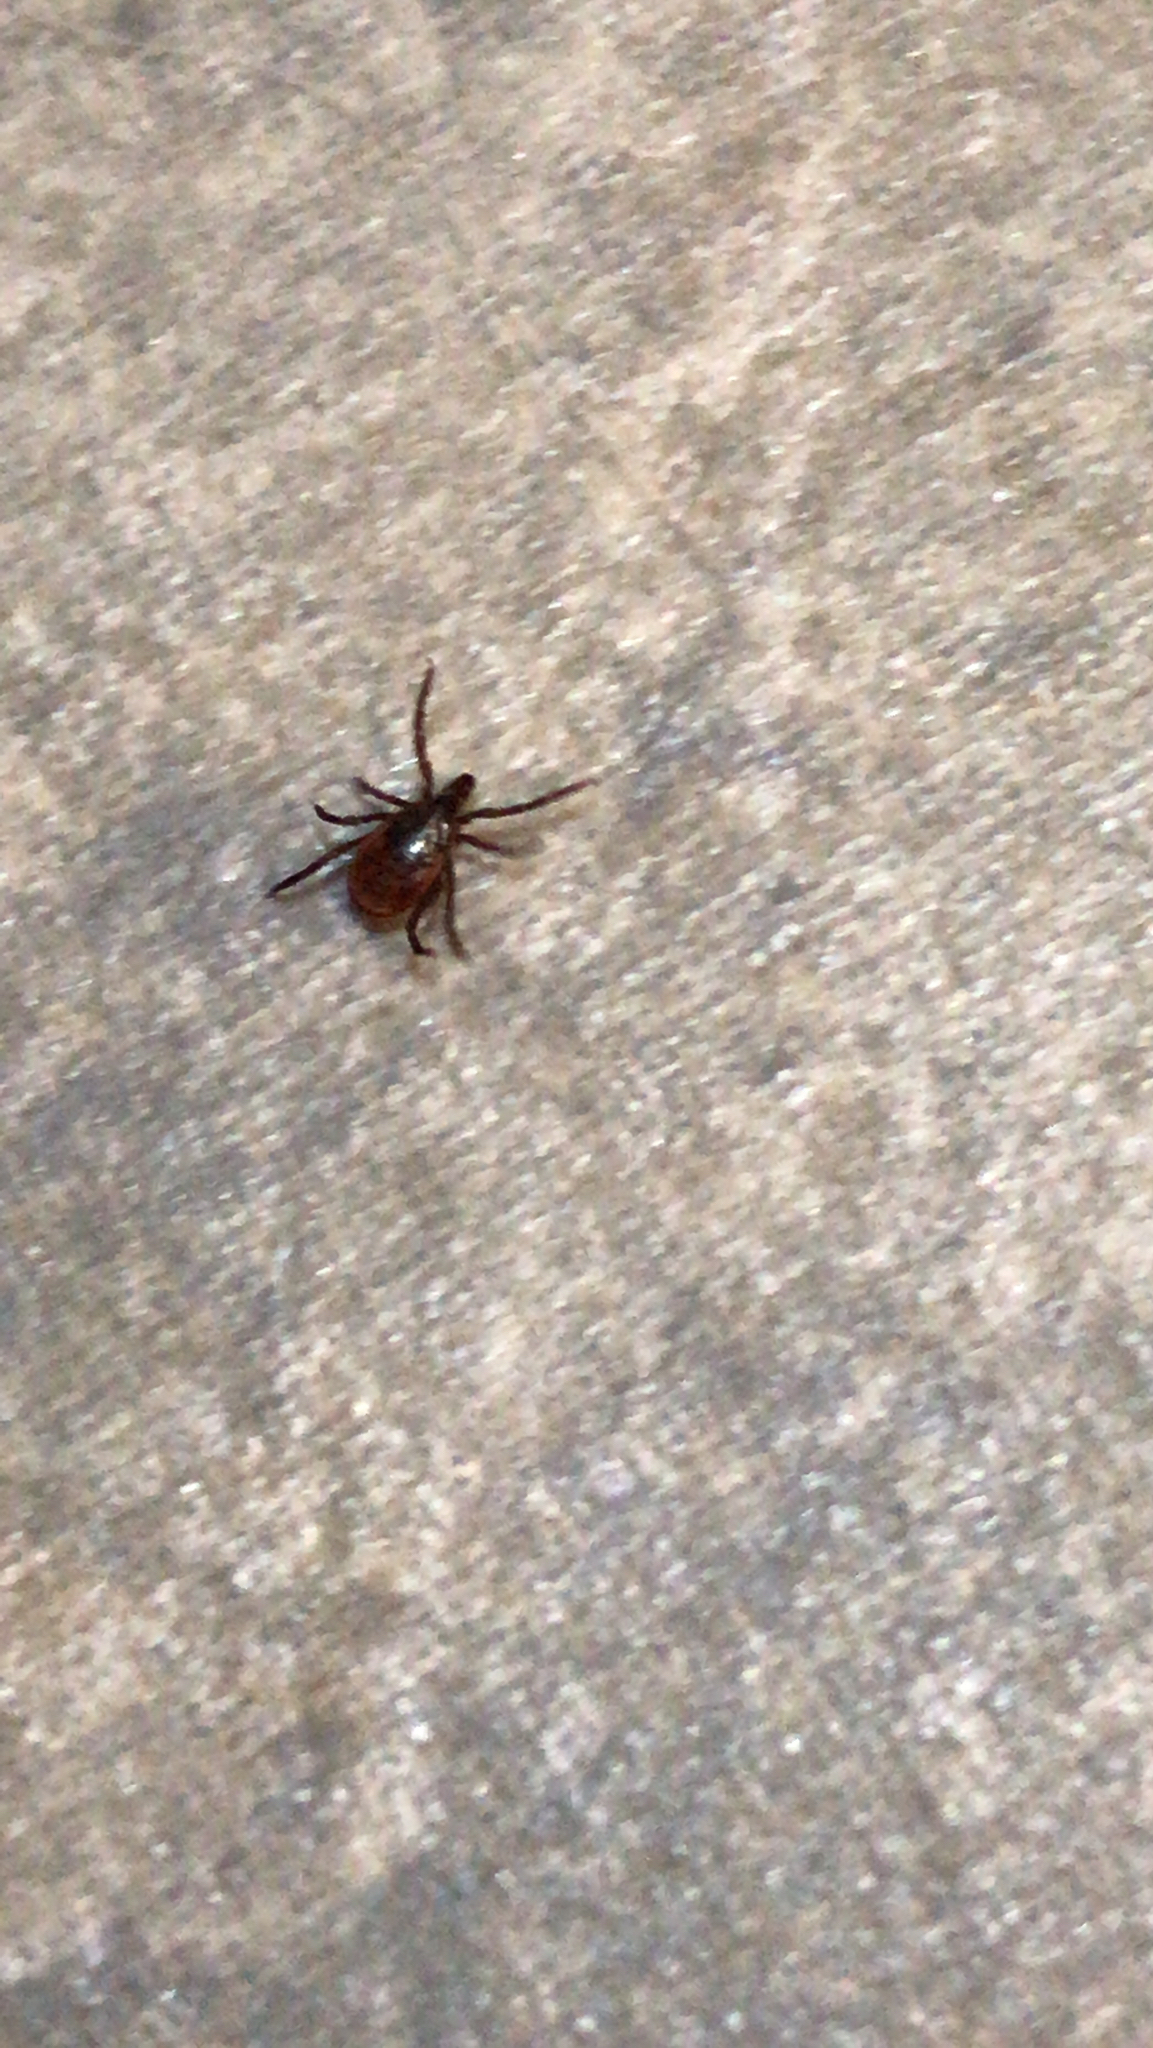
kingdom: Animalia
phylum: Arthropoda
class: Arachnida
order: Ixodida
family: Ixodidae
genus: Ixodes
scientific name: Ixodes scapularis
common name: Black legged tick
